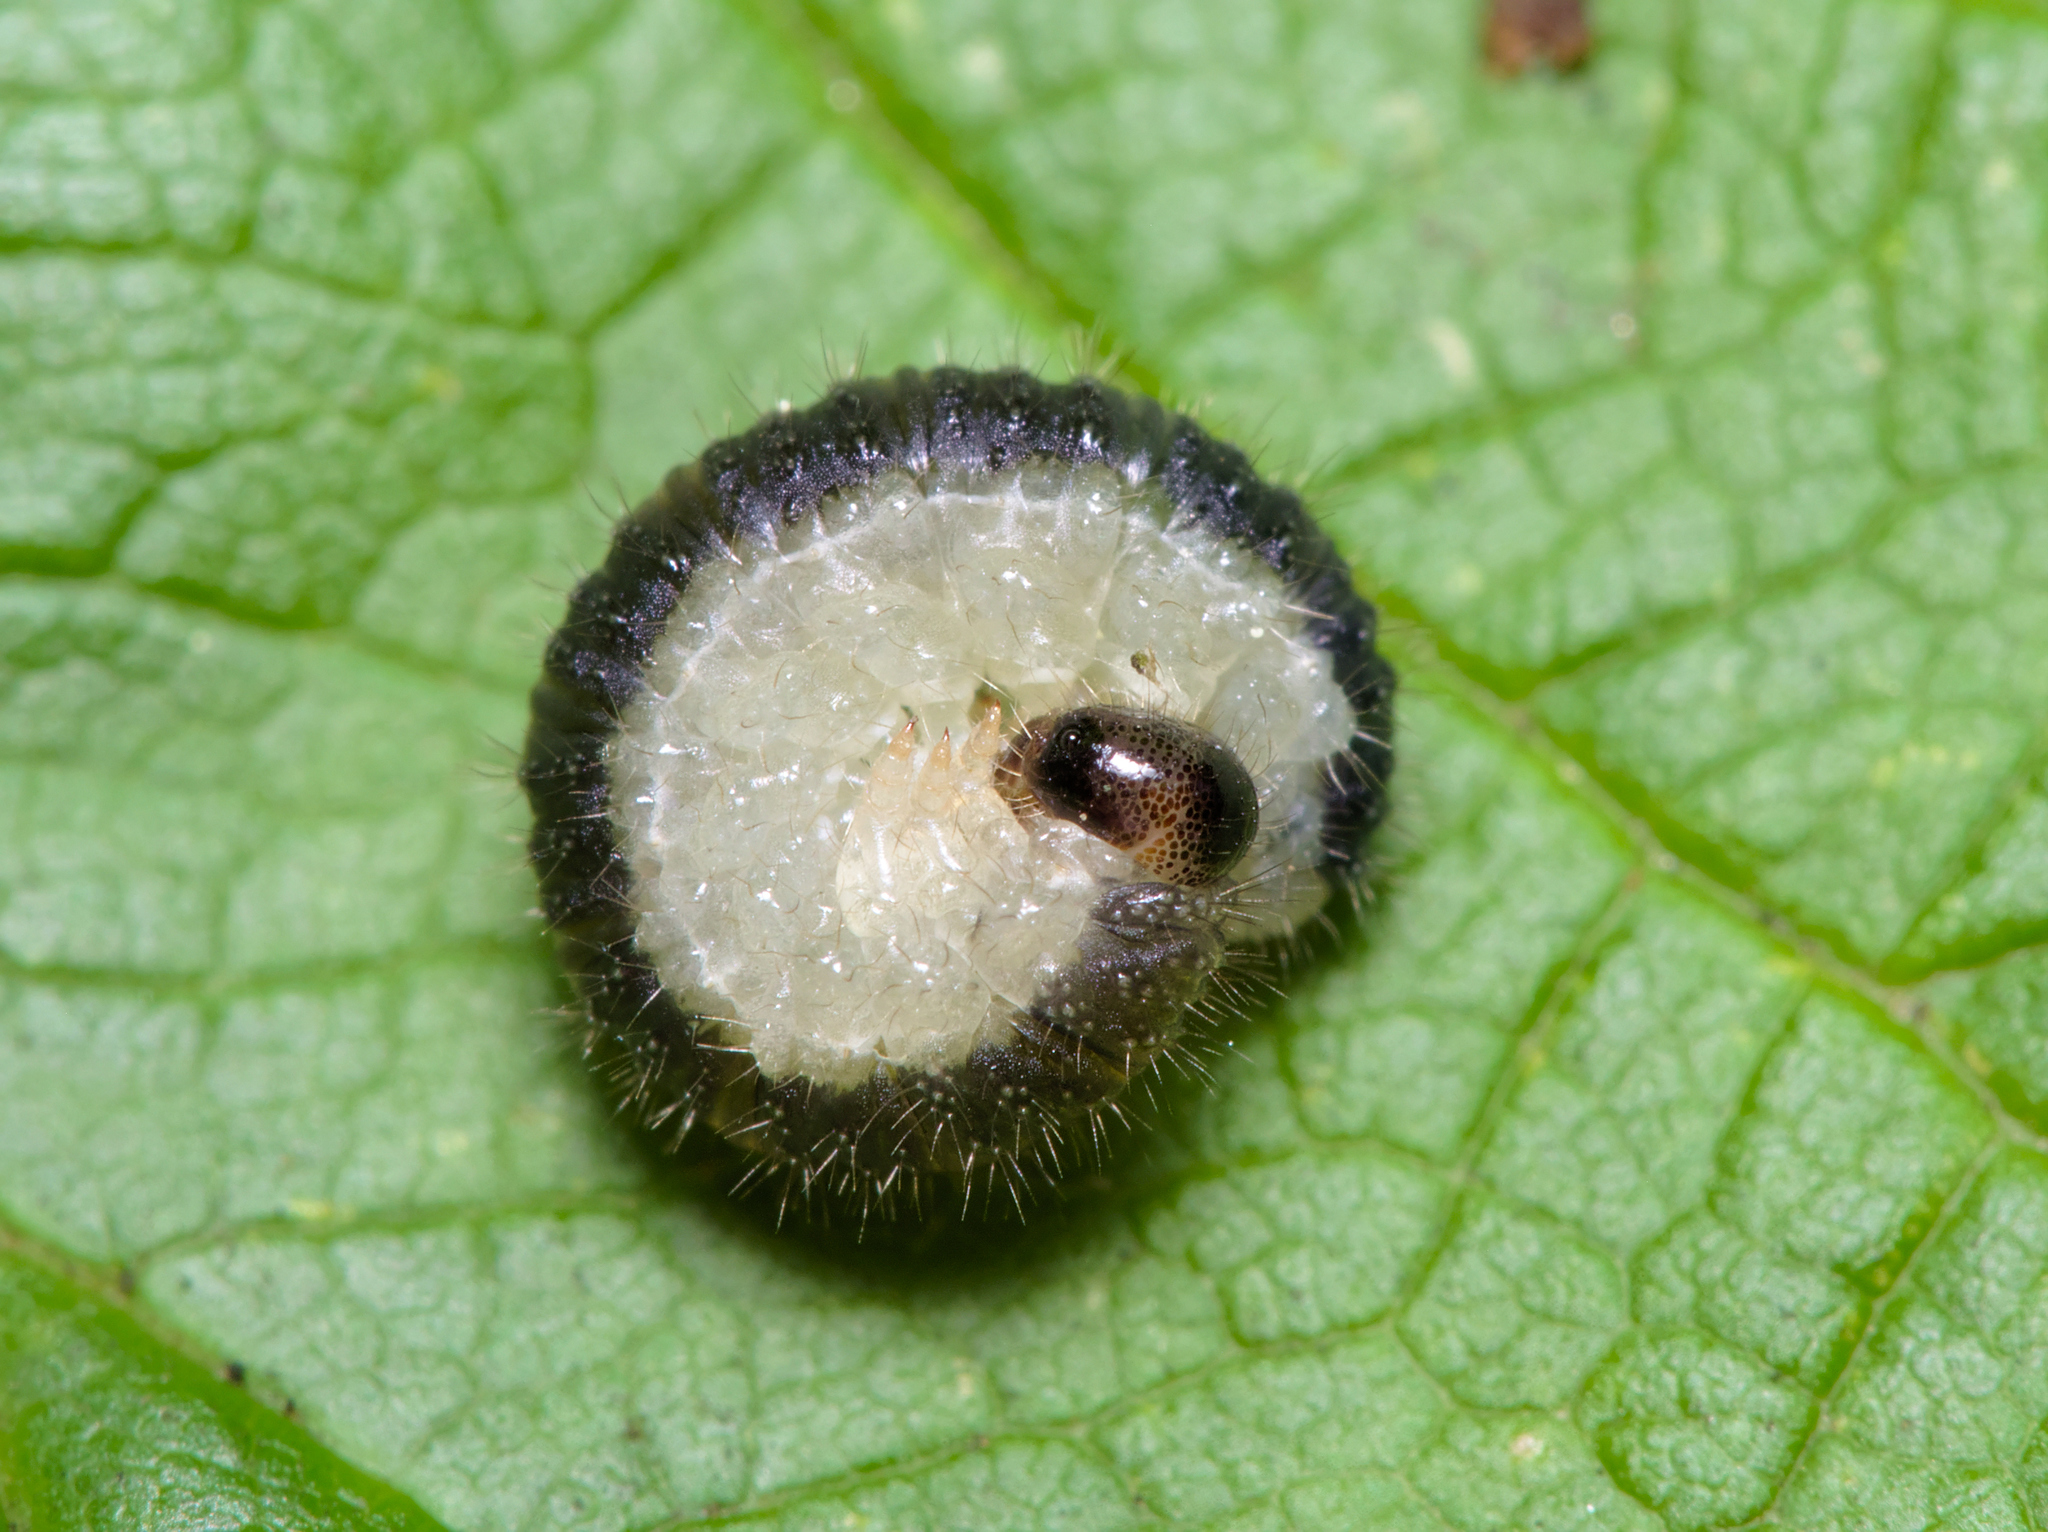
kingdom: Animalia
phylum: Arthropoda
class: Insecta
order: Hymenoptera
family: Tenthredinidae
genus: Cladius
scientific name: Cladius brullei
